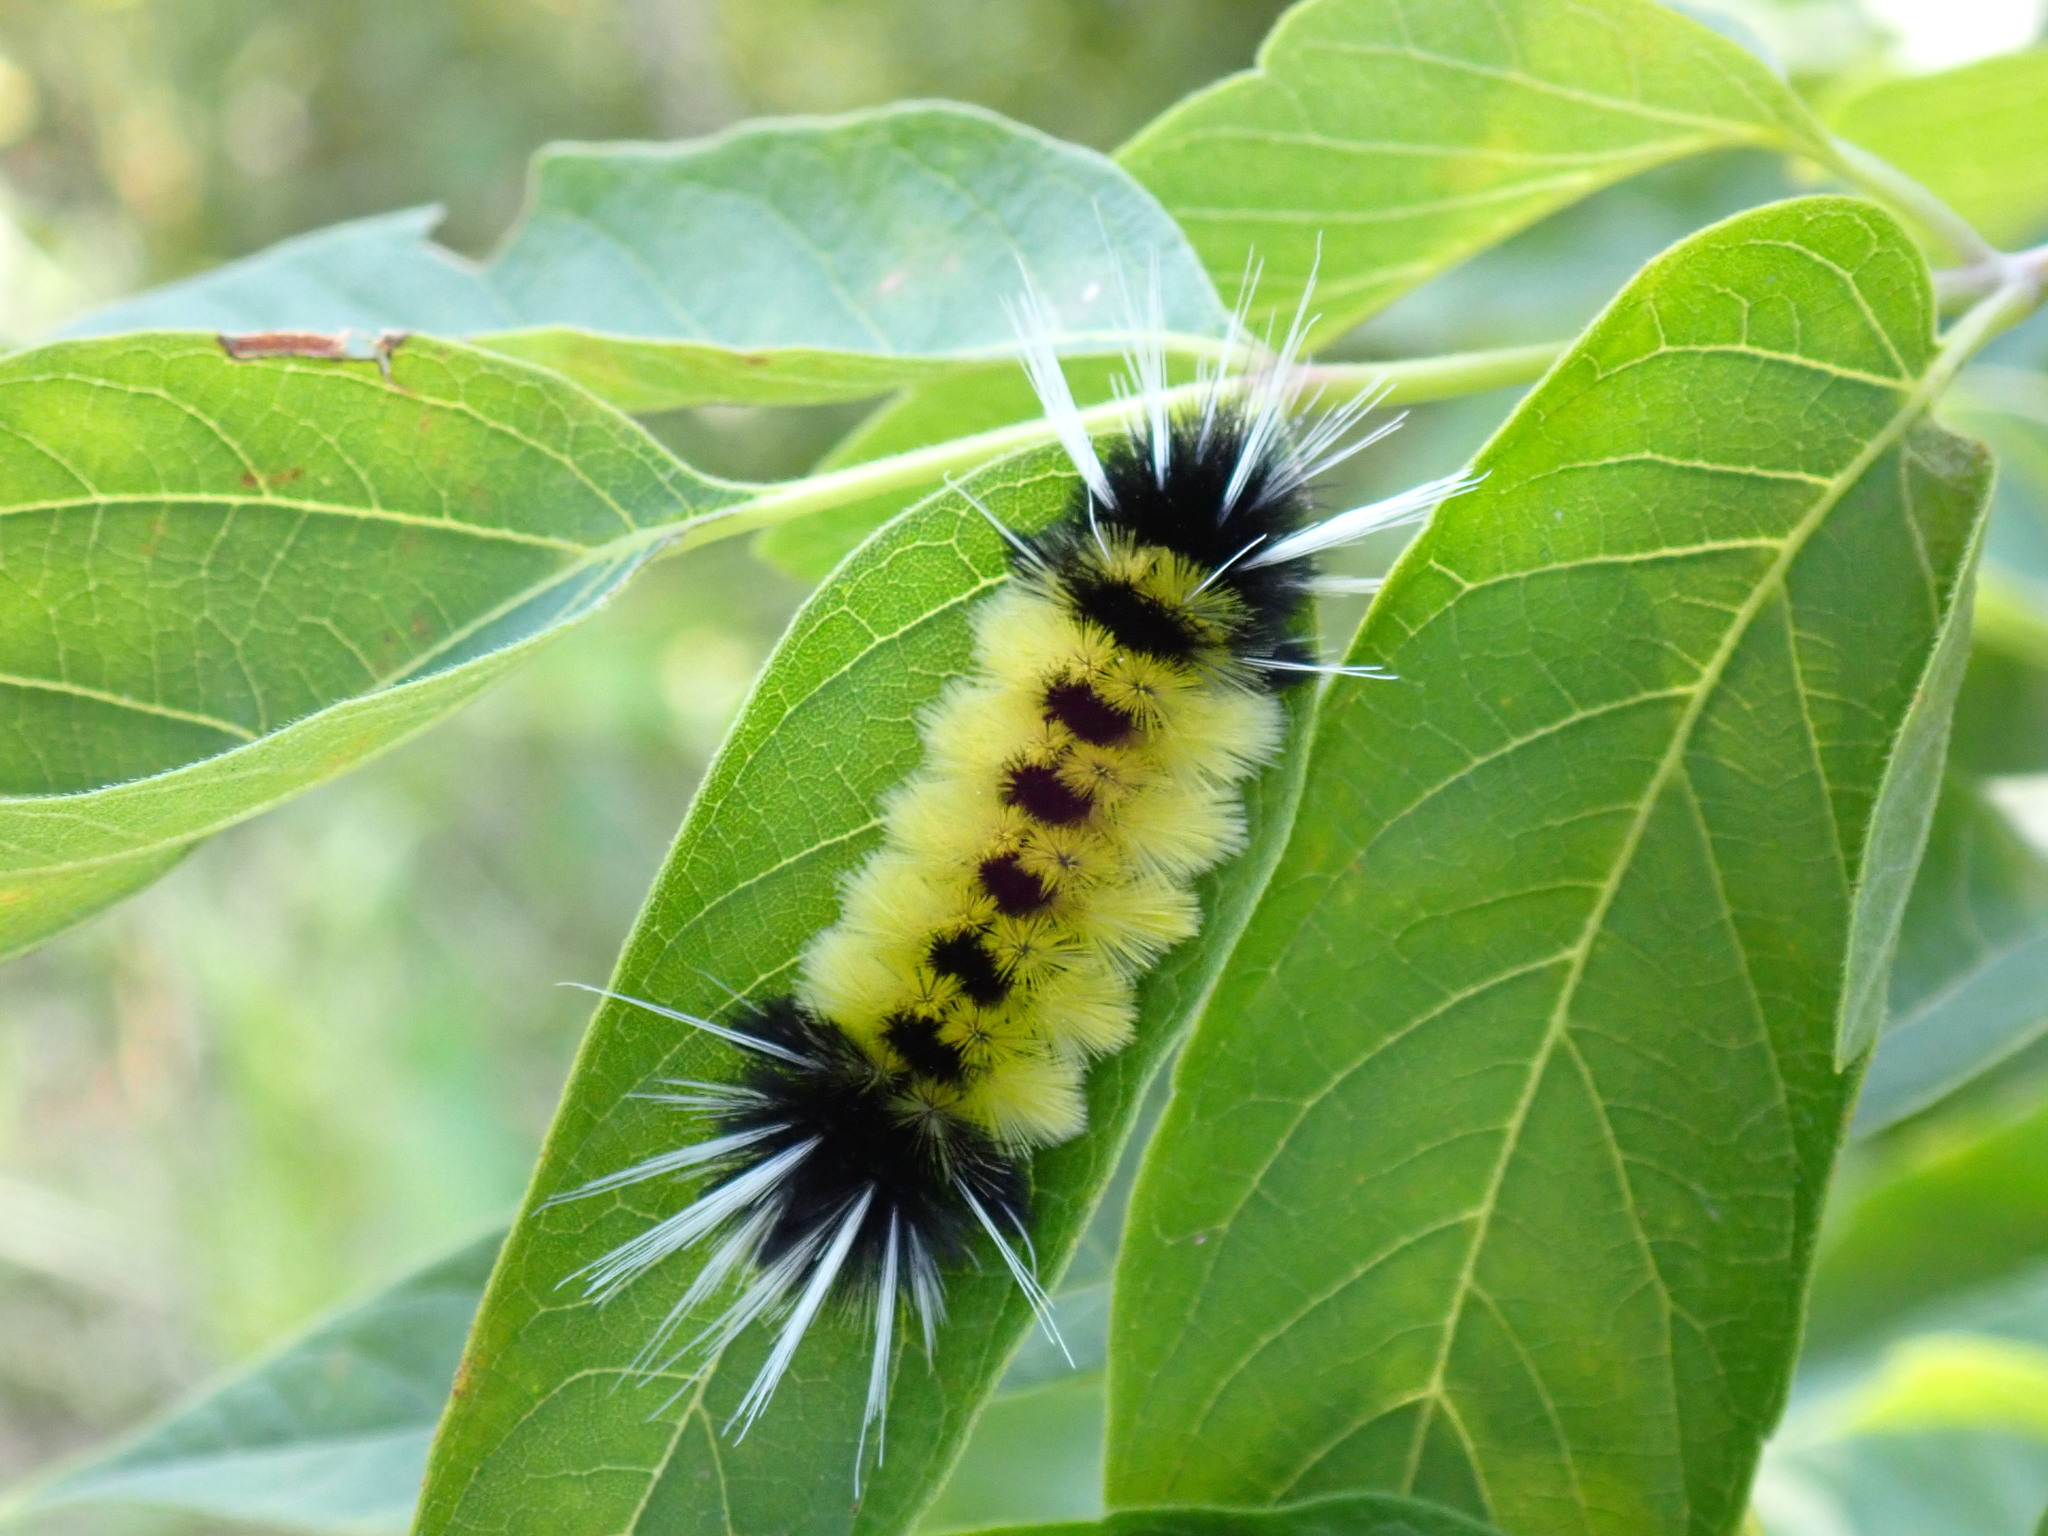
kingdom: Animalia
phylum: Arthropoda
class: Insecta
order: Lepidoptera
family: Erebidae
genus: Lophocampa
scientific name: Lophocampa maculata
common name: Spotted tussock moth
